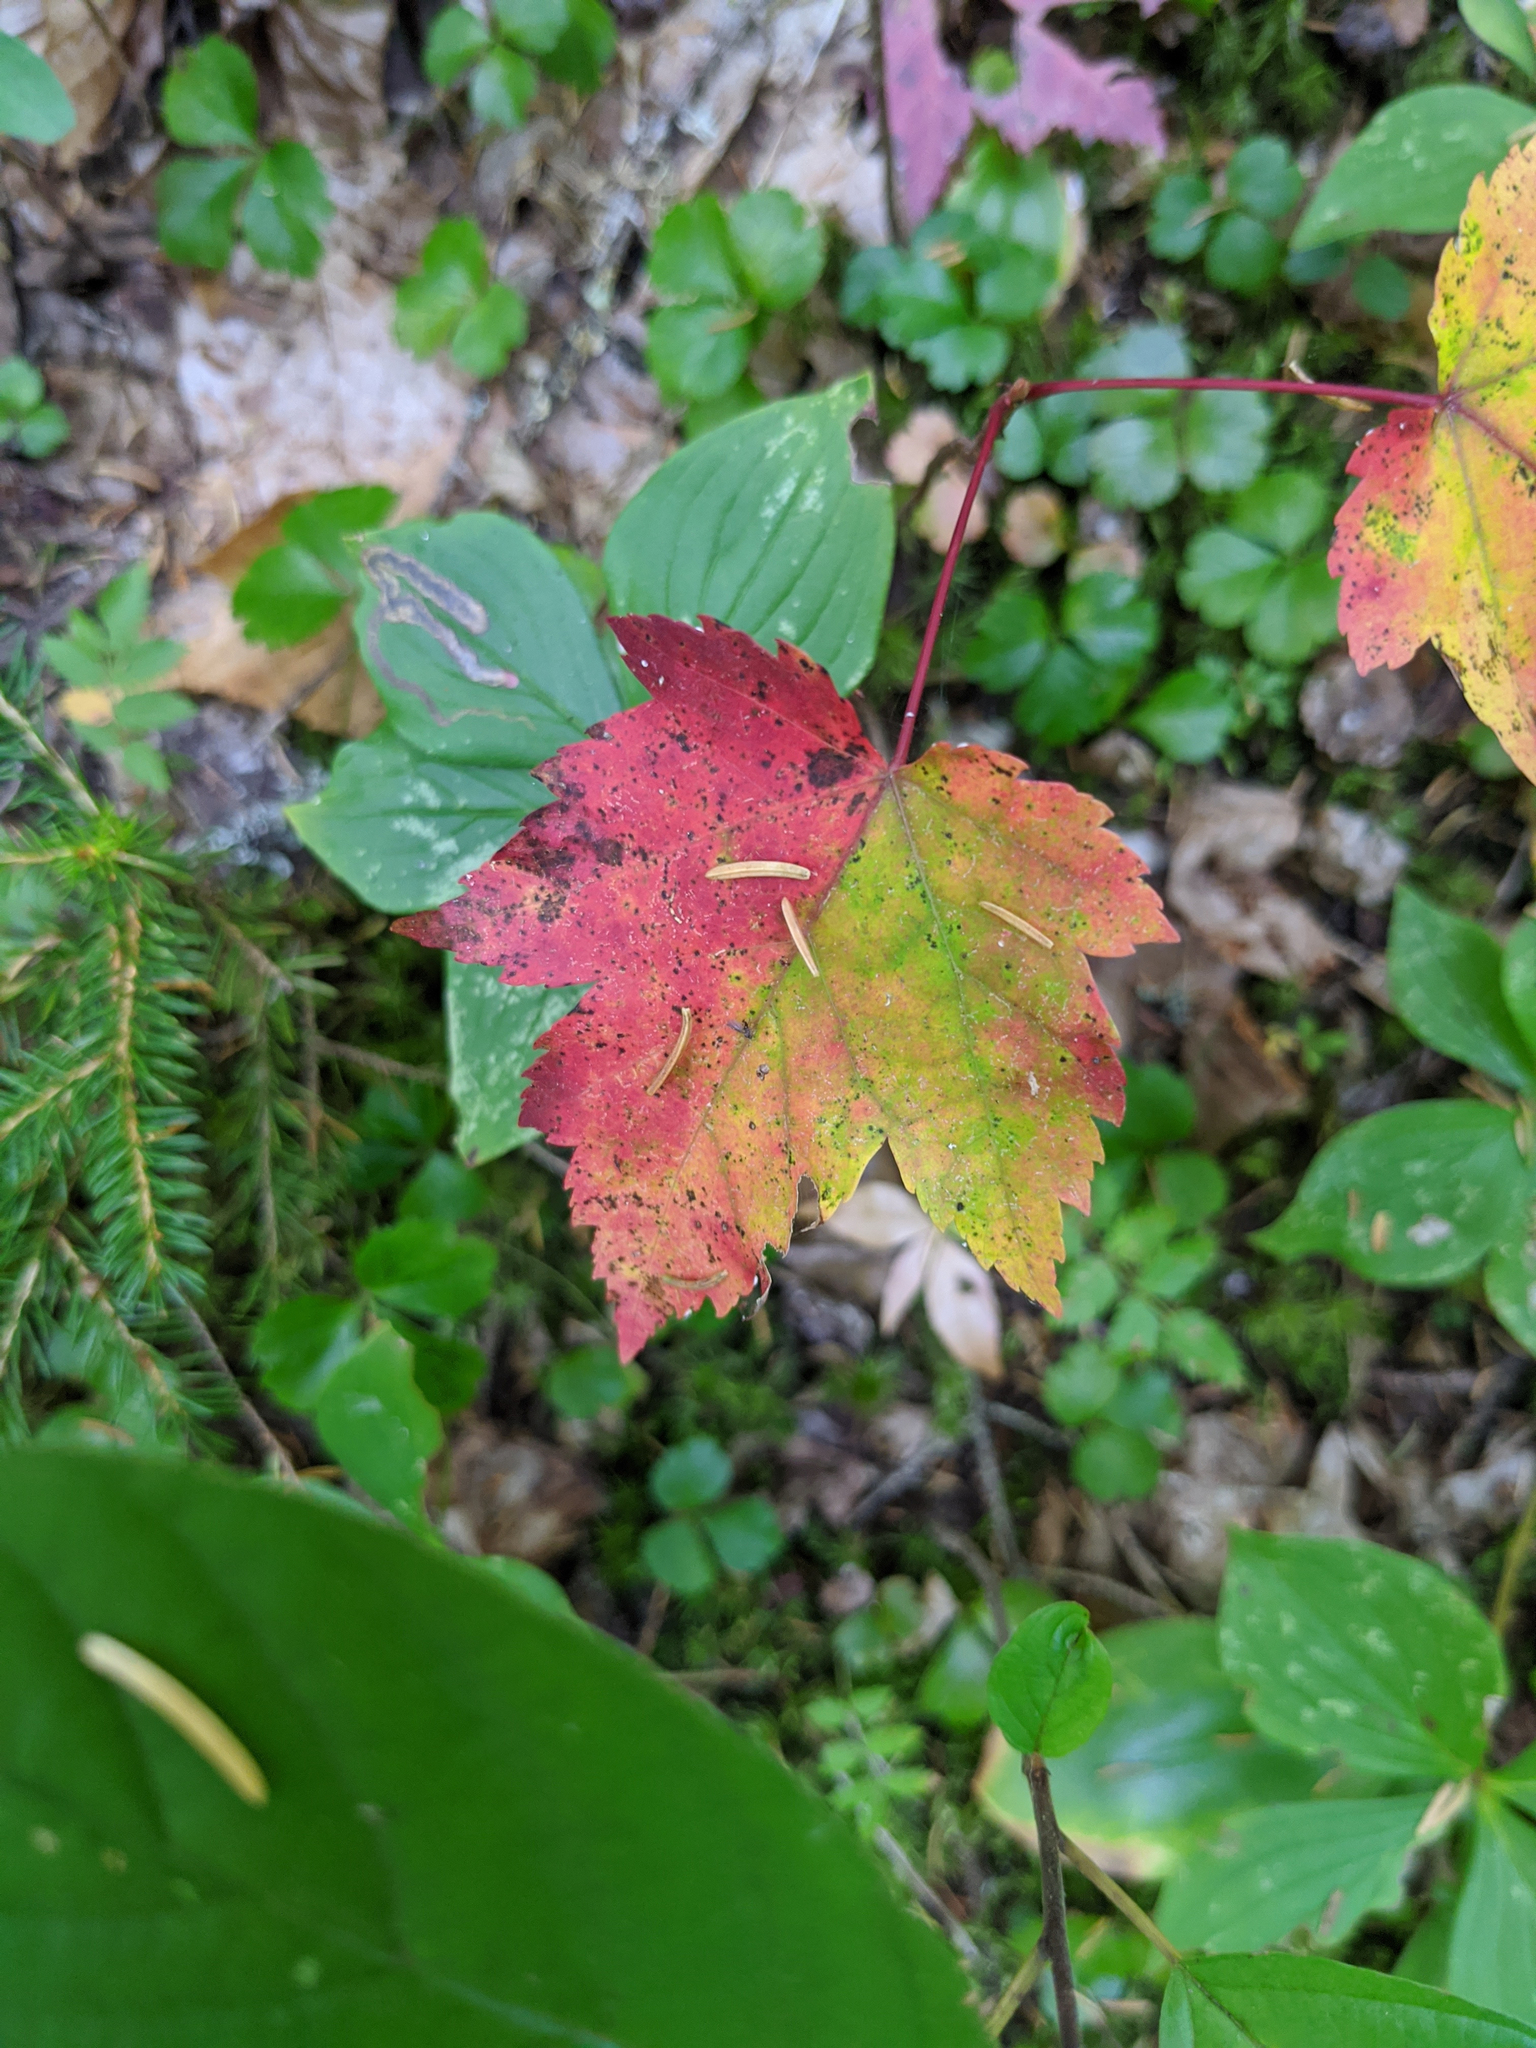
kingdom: Plantae
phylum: Tracheophyta
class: Magnoliopsida
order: Sapindales
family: Sapindaceae
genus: Acer
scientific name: Acer rubrum
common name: Red maple
